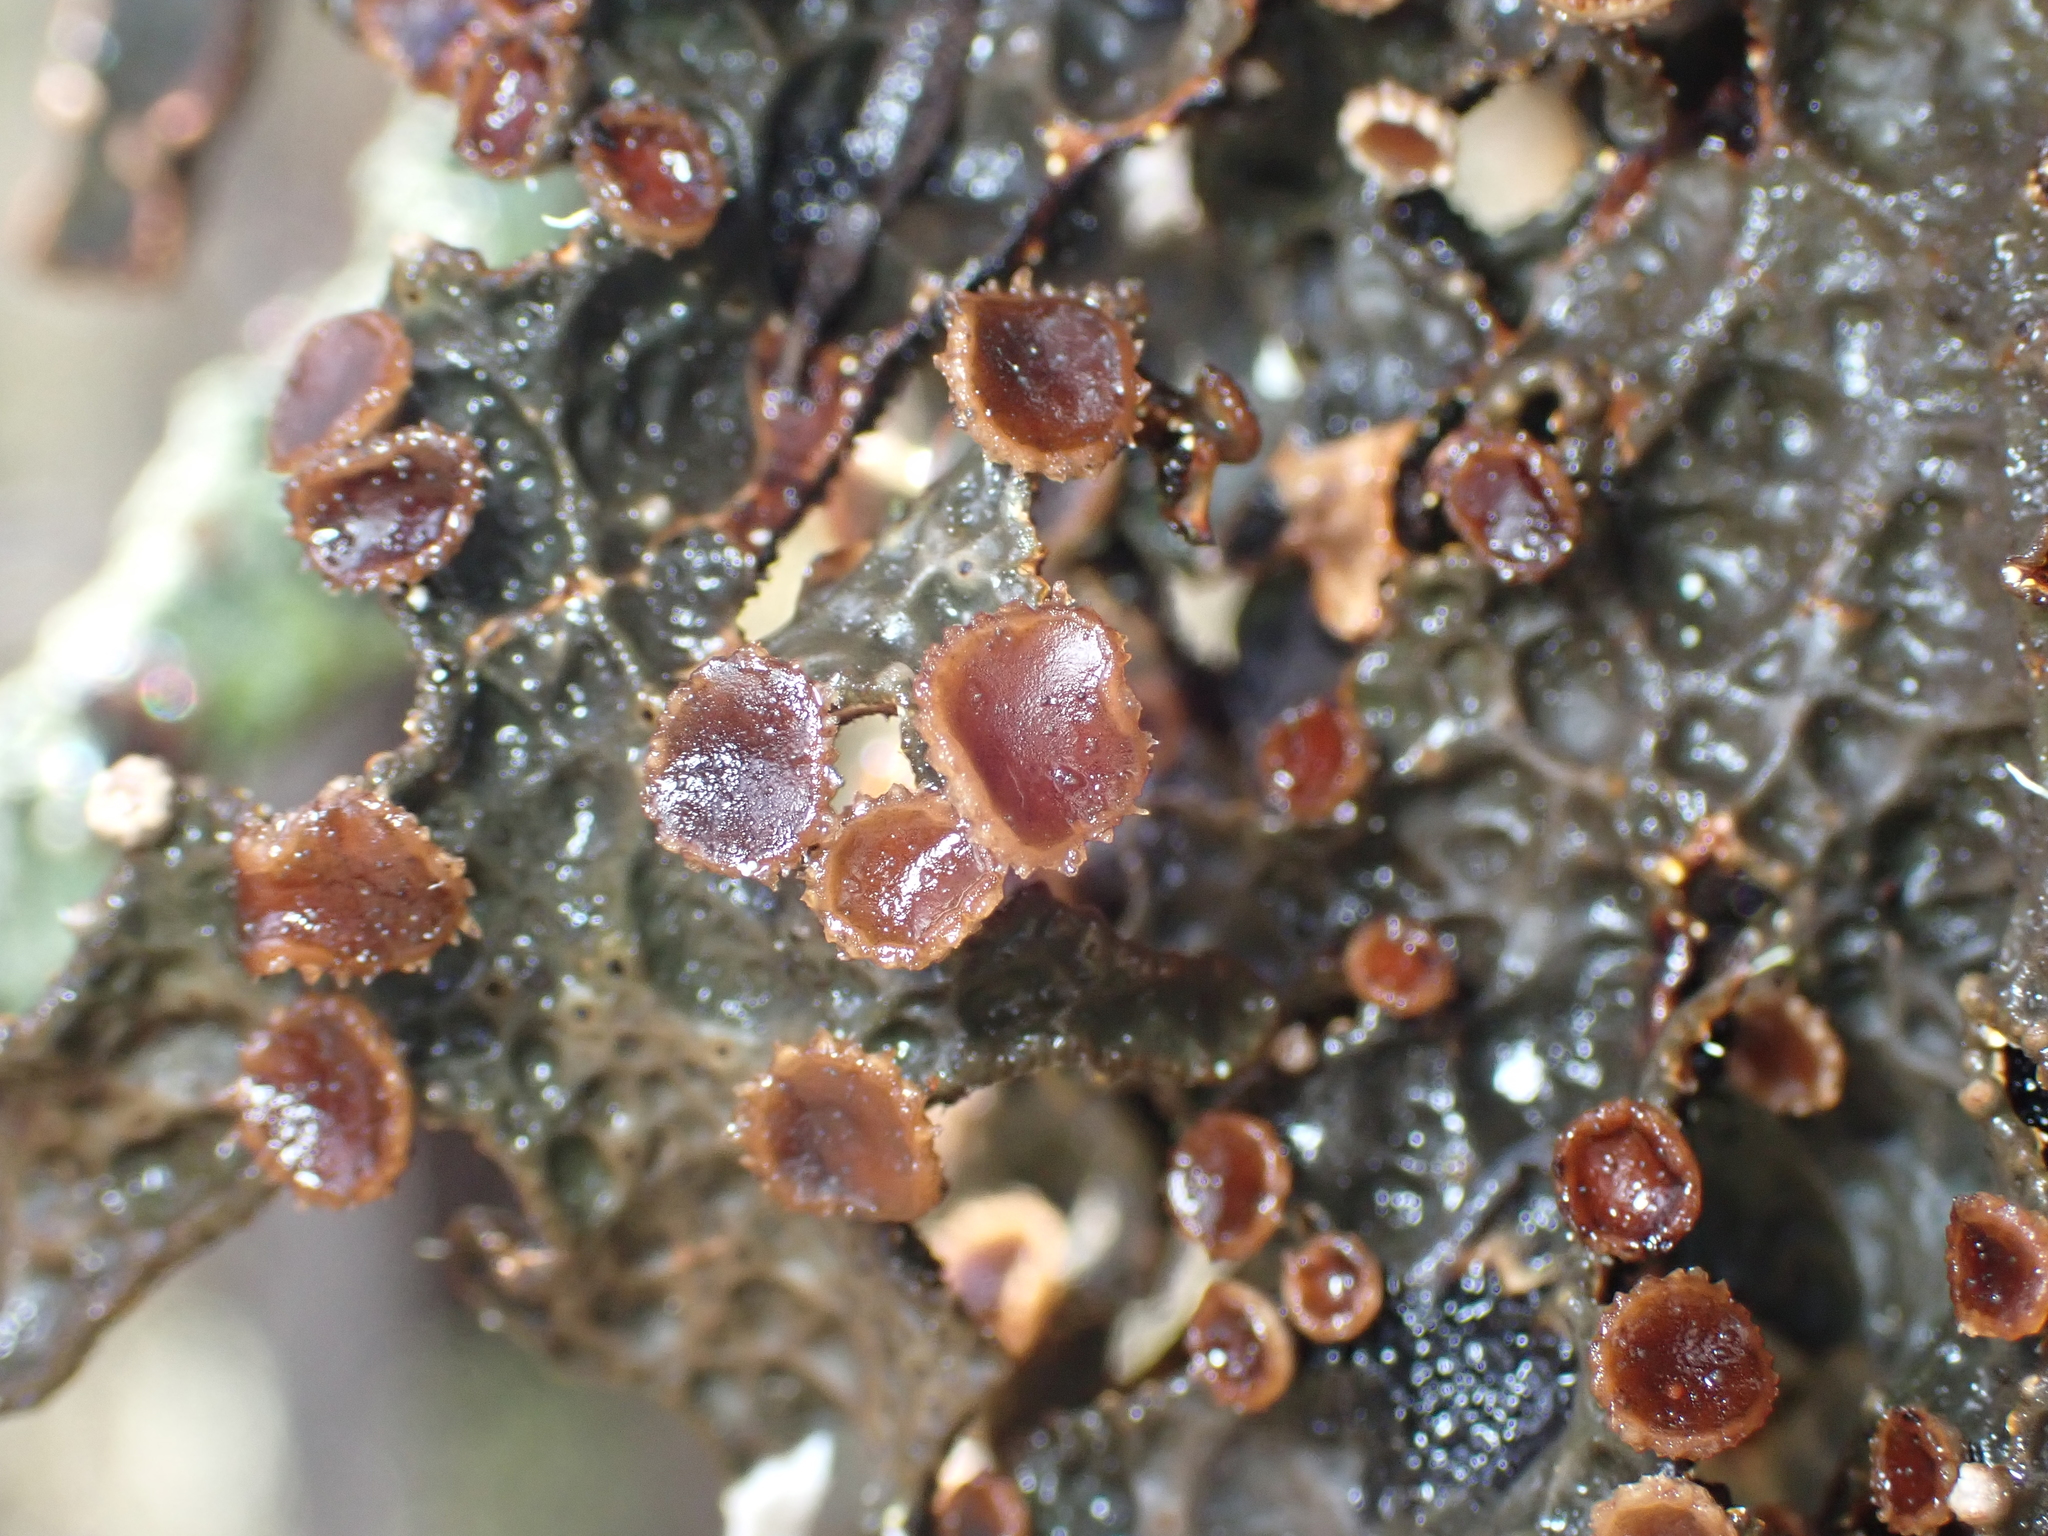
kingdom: Fungi
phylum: Ascomycota
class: Lecanoromycetes
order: Peltigerales
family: Lobariaceae
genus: Pseudocyphellaria
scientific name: Pseudocyphellaria crassa
